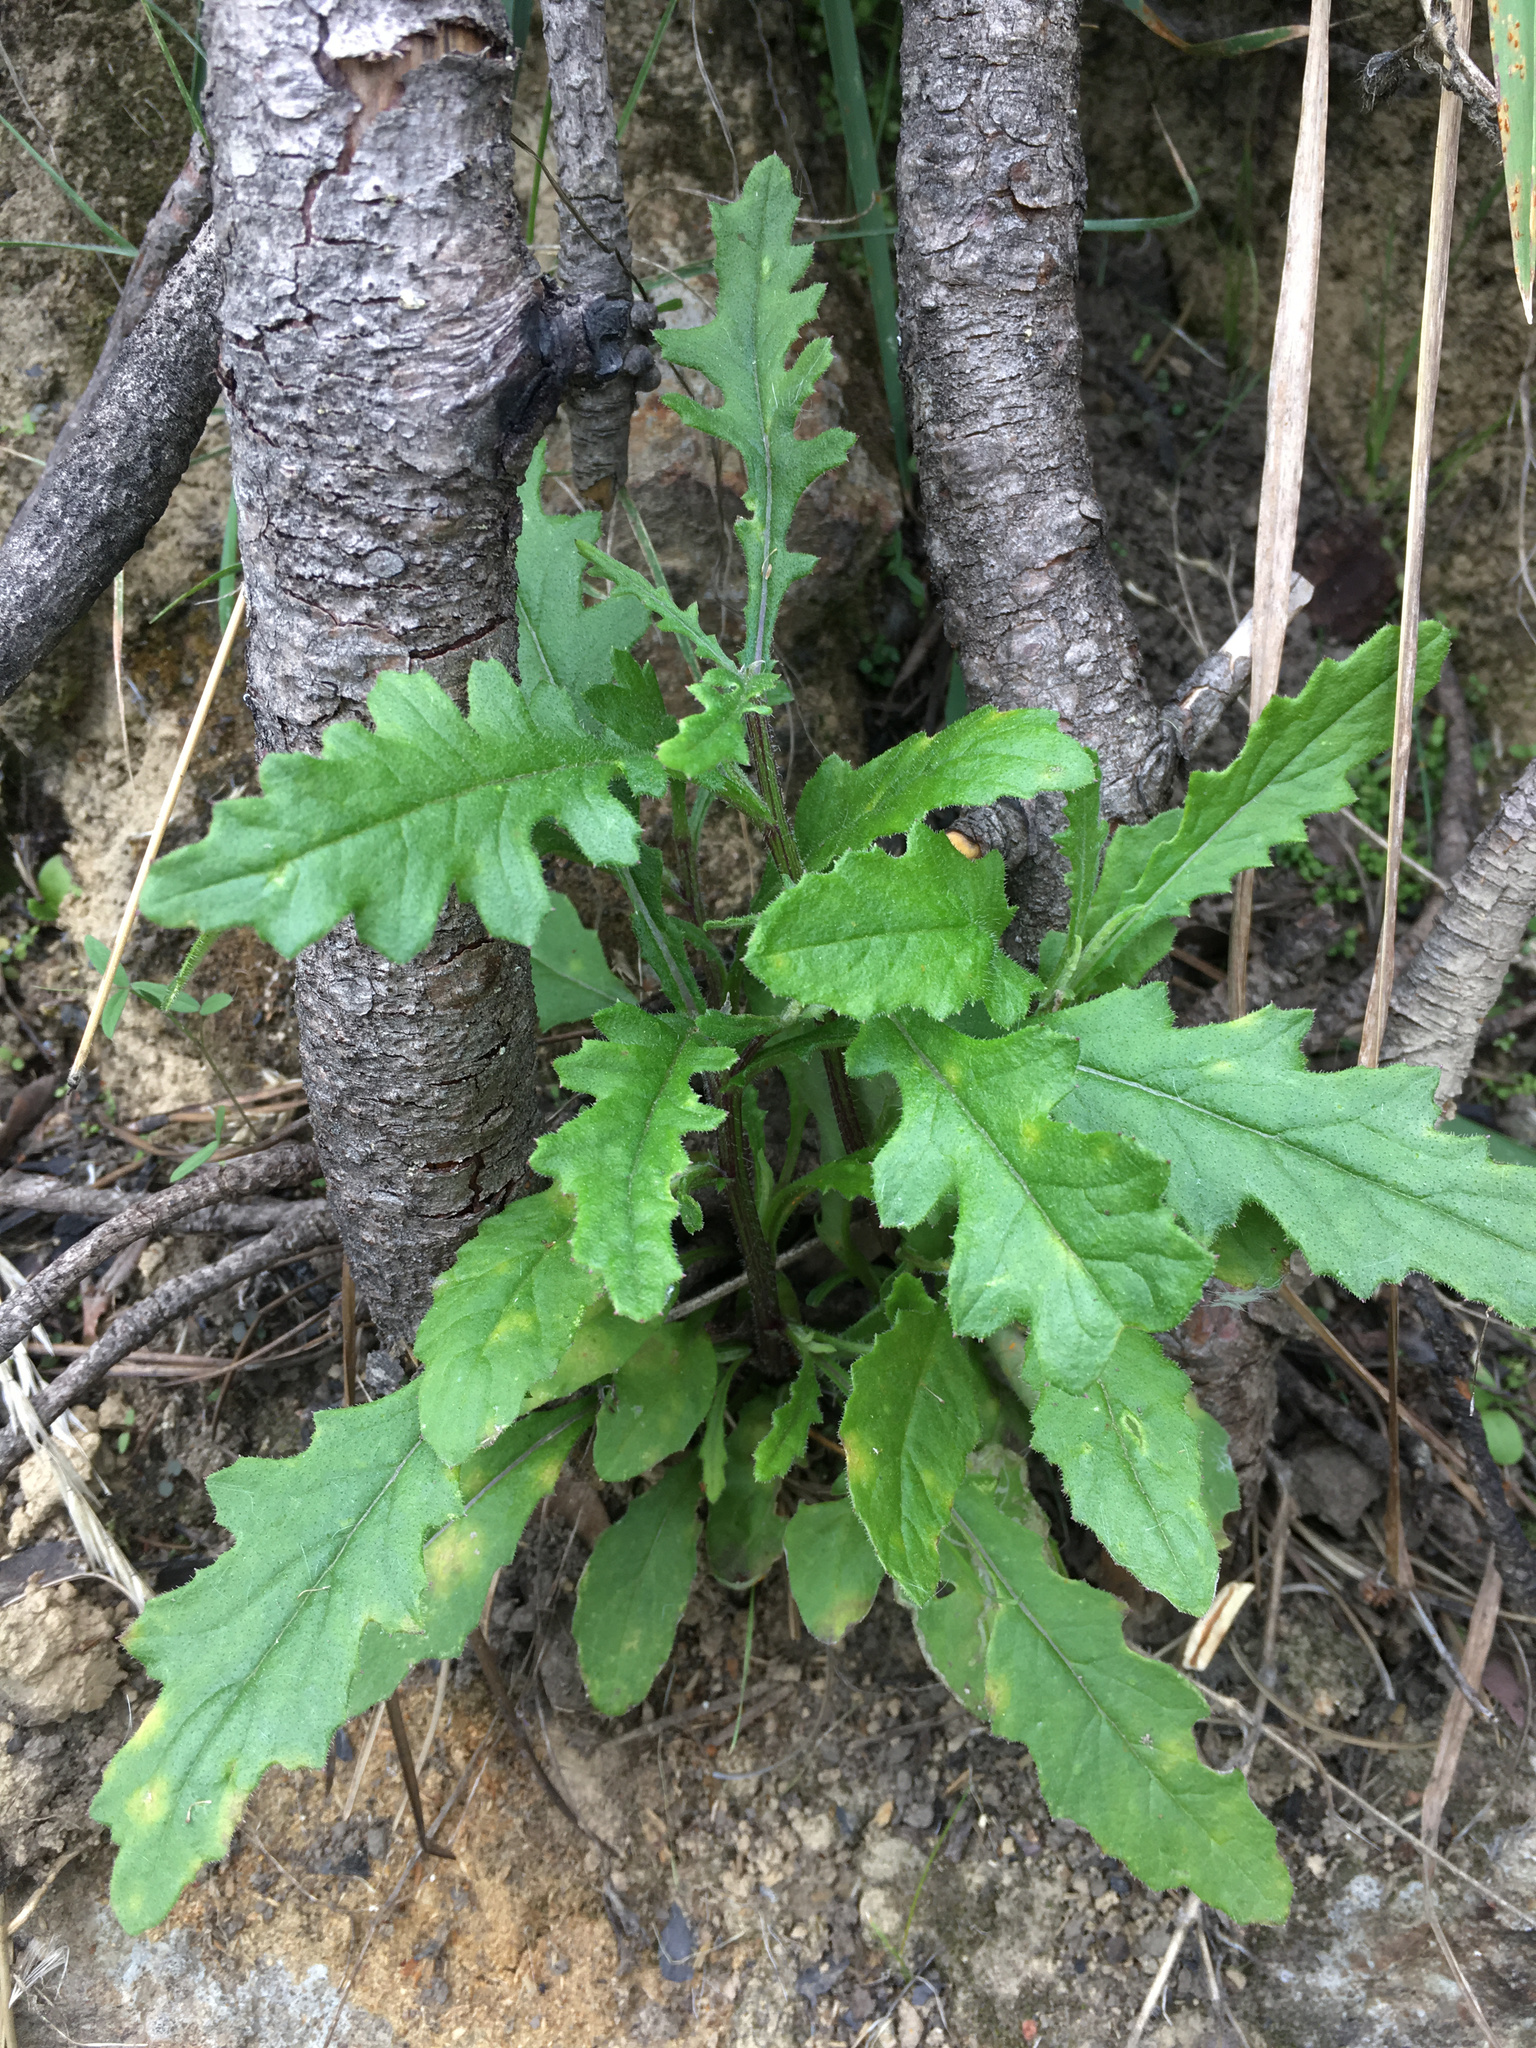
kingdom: Plantae
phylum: Tracheophyta
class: Magnoliopsida
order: Asterales
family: Asteraceae
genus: Senecio
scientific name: Senecio hispidulus
